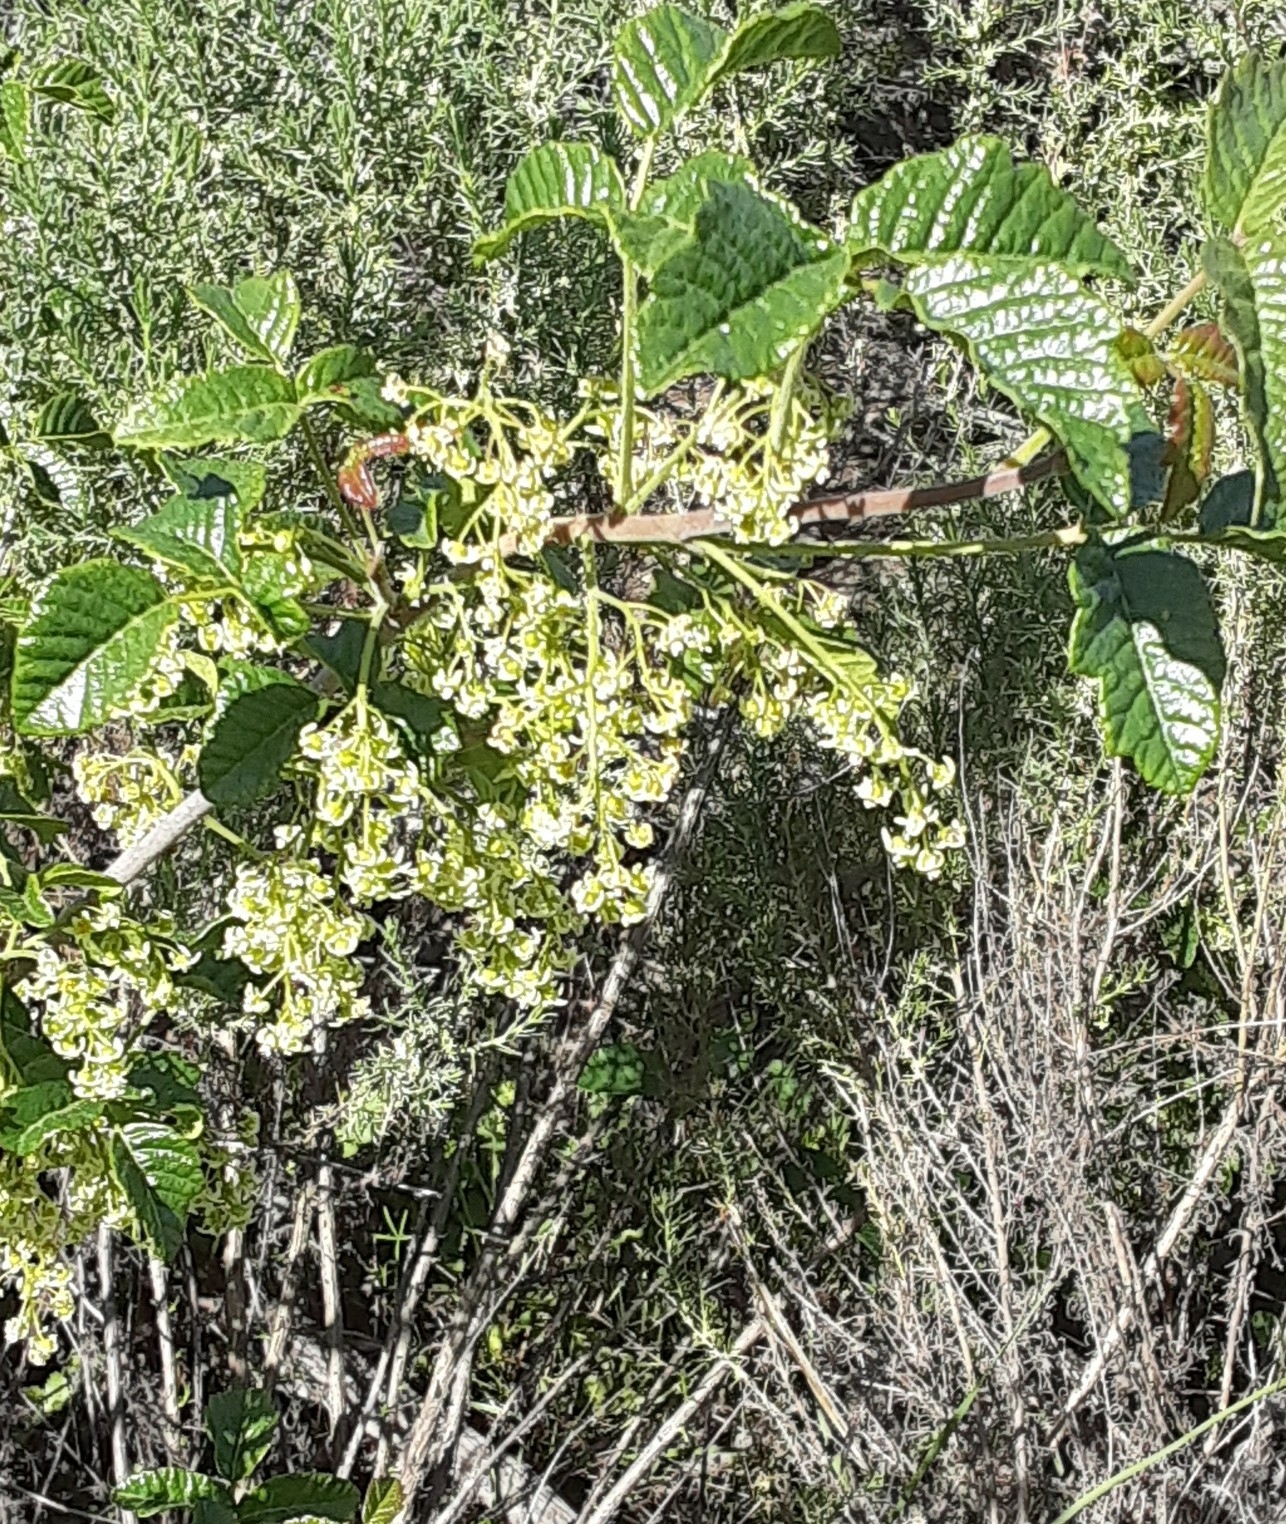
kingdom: Plantae
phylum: Tracheophyta
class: Magnoliopsida
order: Sapindales
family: Anacardiaceae
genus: Toxicodendron
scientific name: Toxicodendron diversilobum
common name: Pacific poison-oak
